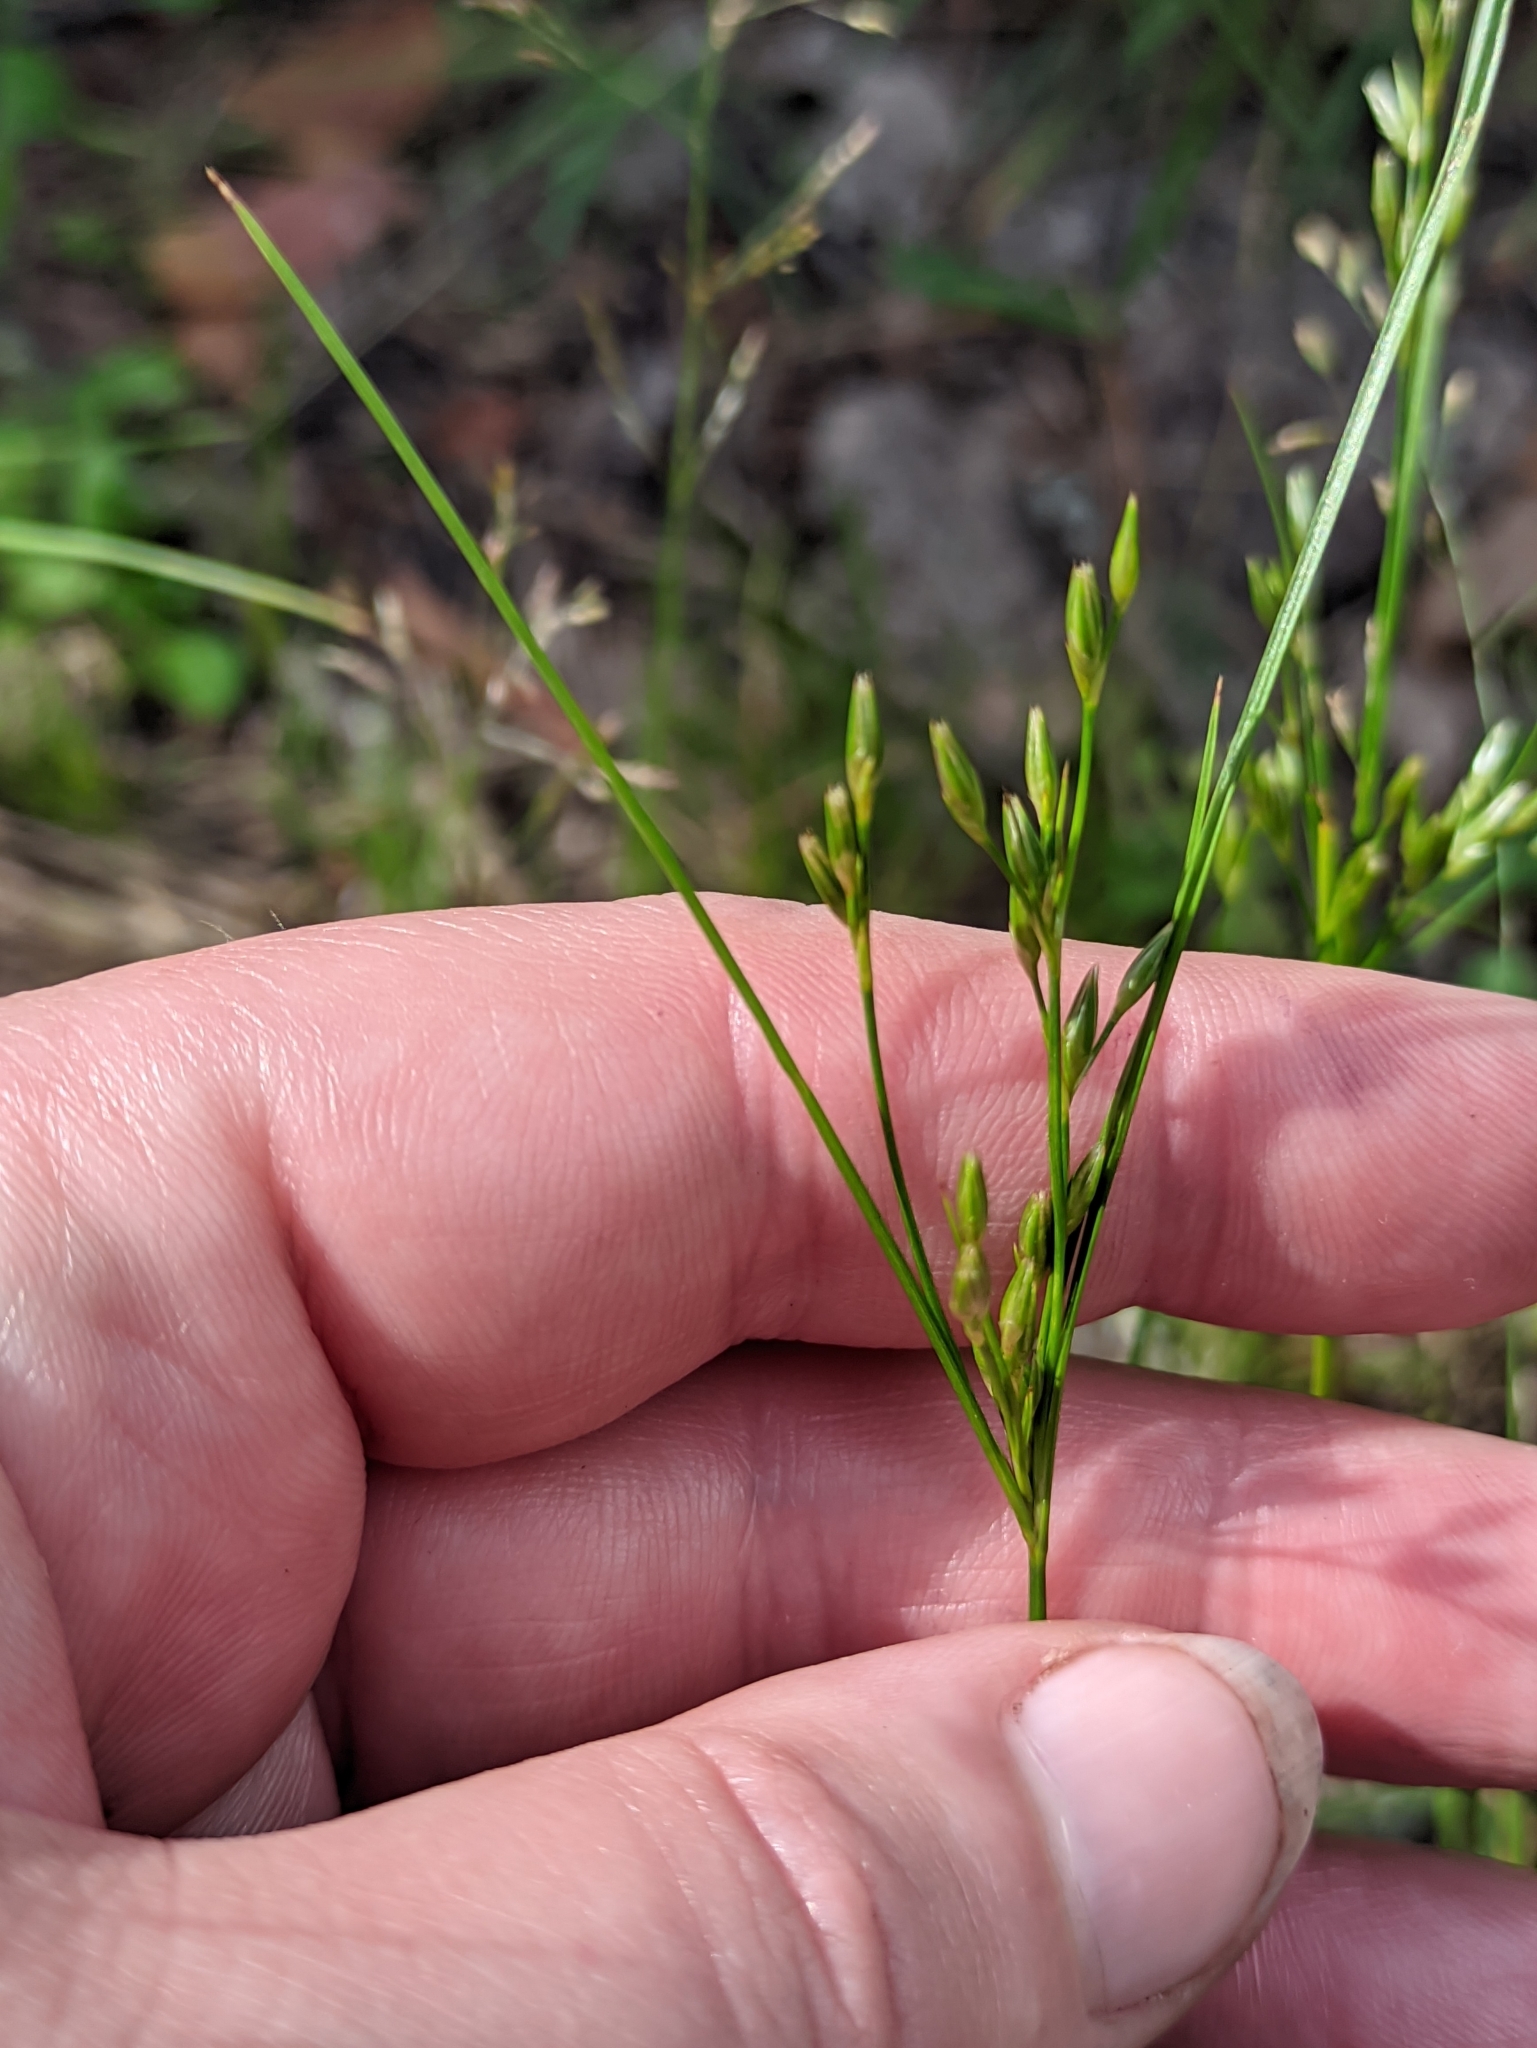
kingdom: Plantae
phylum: Tracheophyta
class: Liliopsida
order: Poales
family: Juncaceae
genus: Juncus
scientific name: Juncus tenuis
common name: Slender rush
